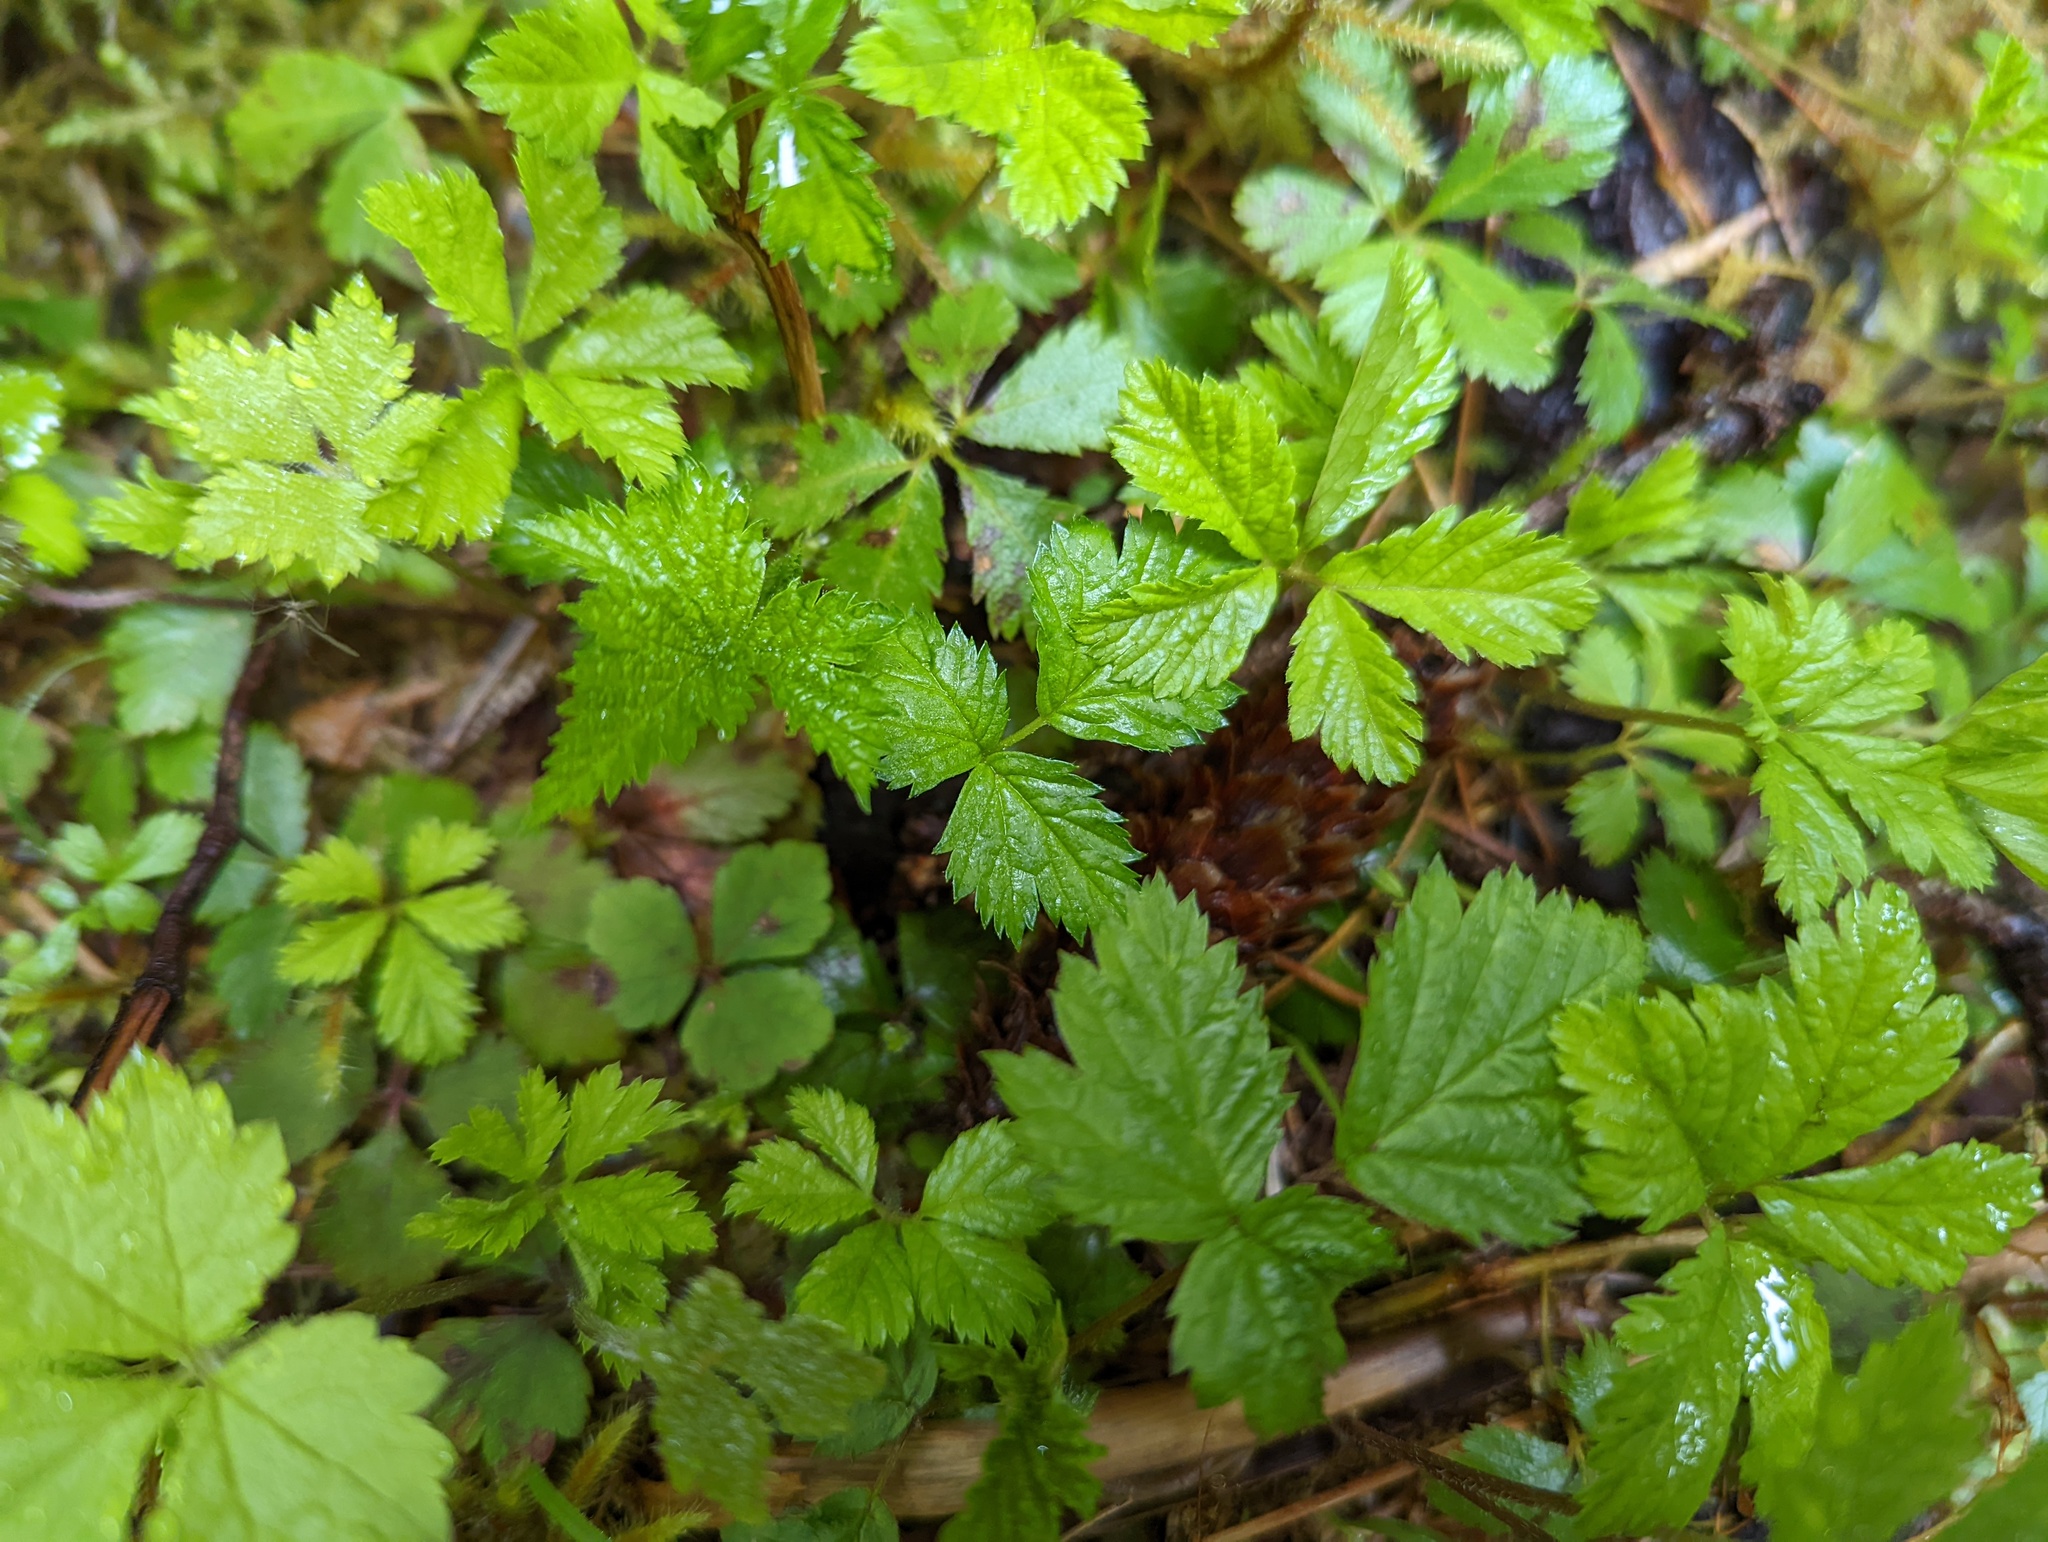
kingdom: Plantae
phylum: Tracheophyta
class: Magnoliopsida
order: Rosales
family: Rosaceae
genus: Rubus
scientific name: Rubus pedatus
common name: Creeping raspberry
